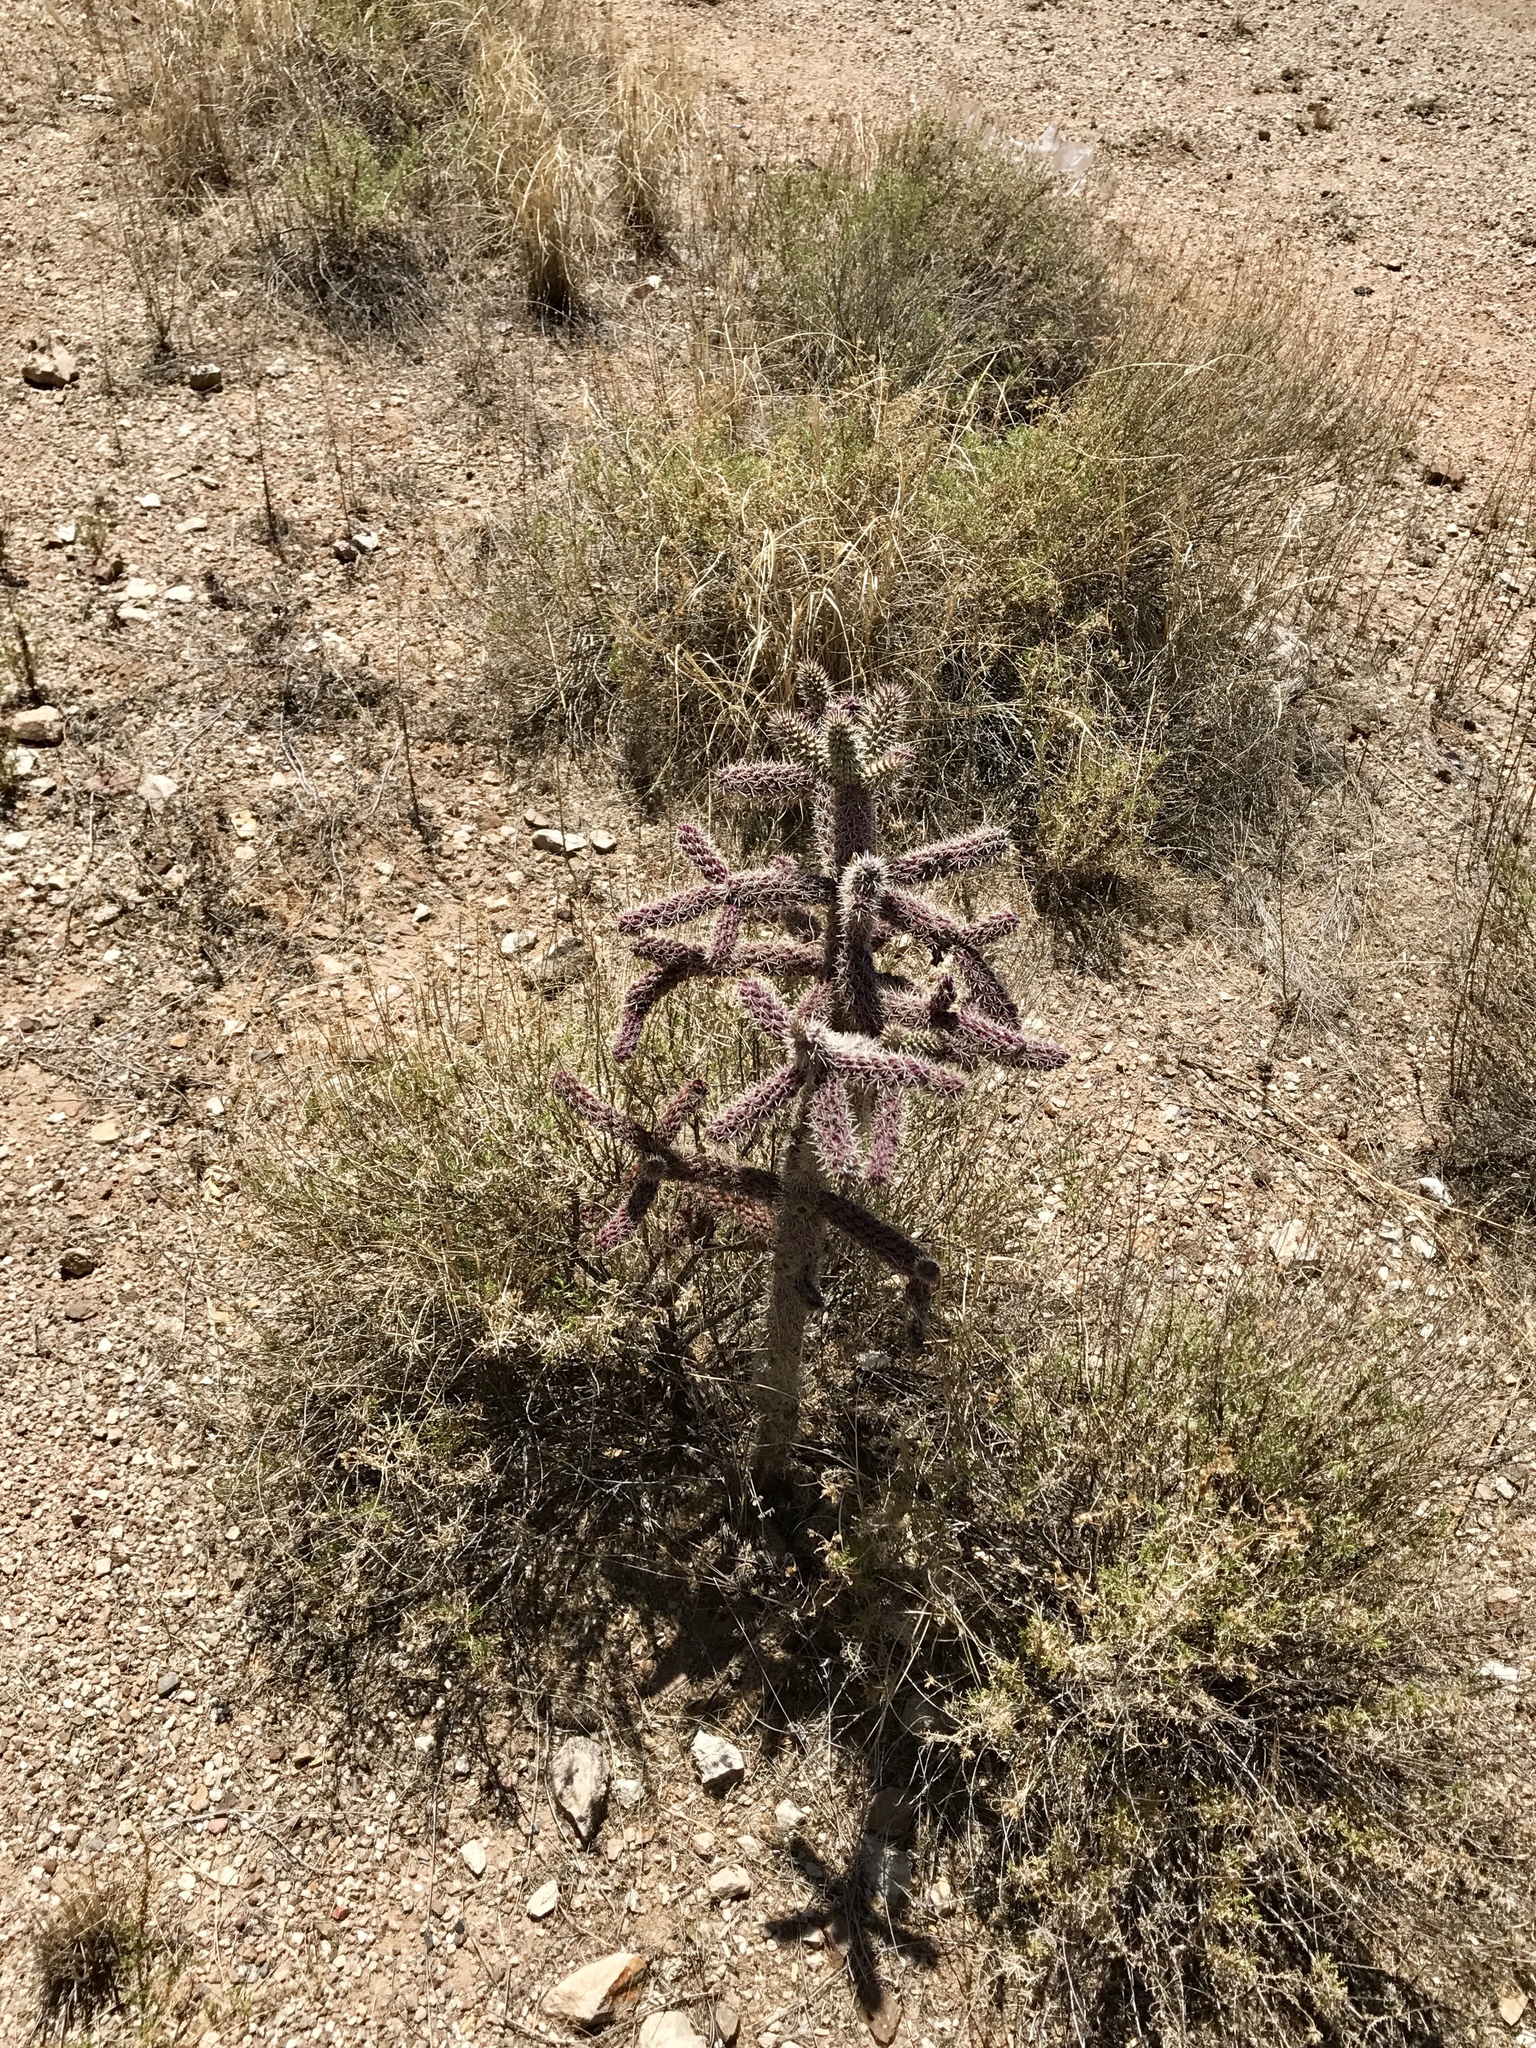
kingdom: Plantae
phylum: Tracheophyta
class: Magnoliopsida
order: Caryophyllales
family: Cactaceae
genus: Cylindropuntia
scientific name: Cylindropuntia imbricata
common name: Candelabrum cactus
